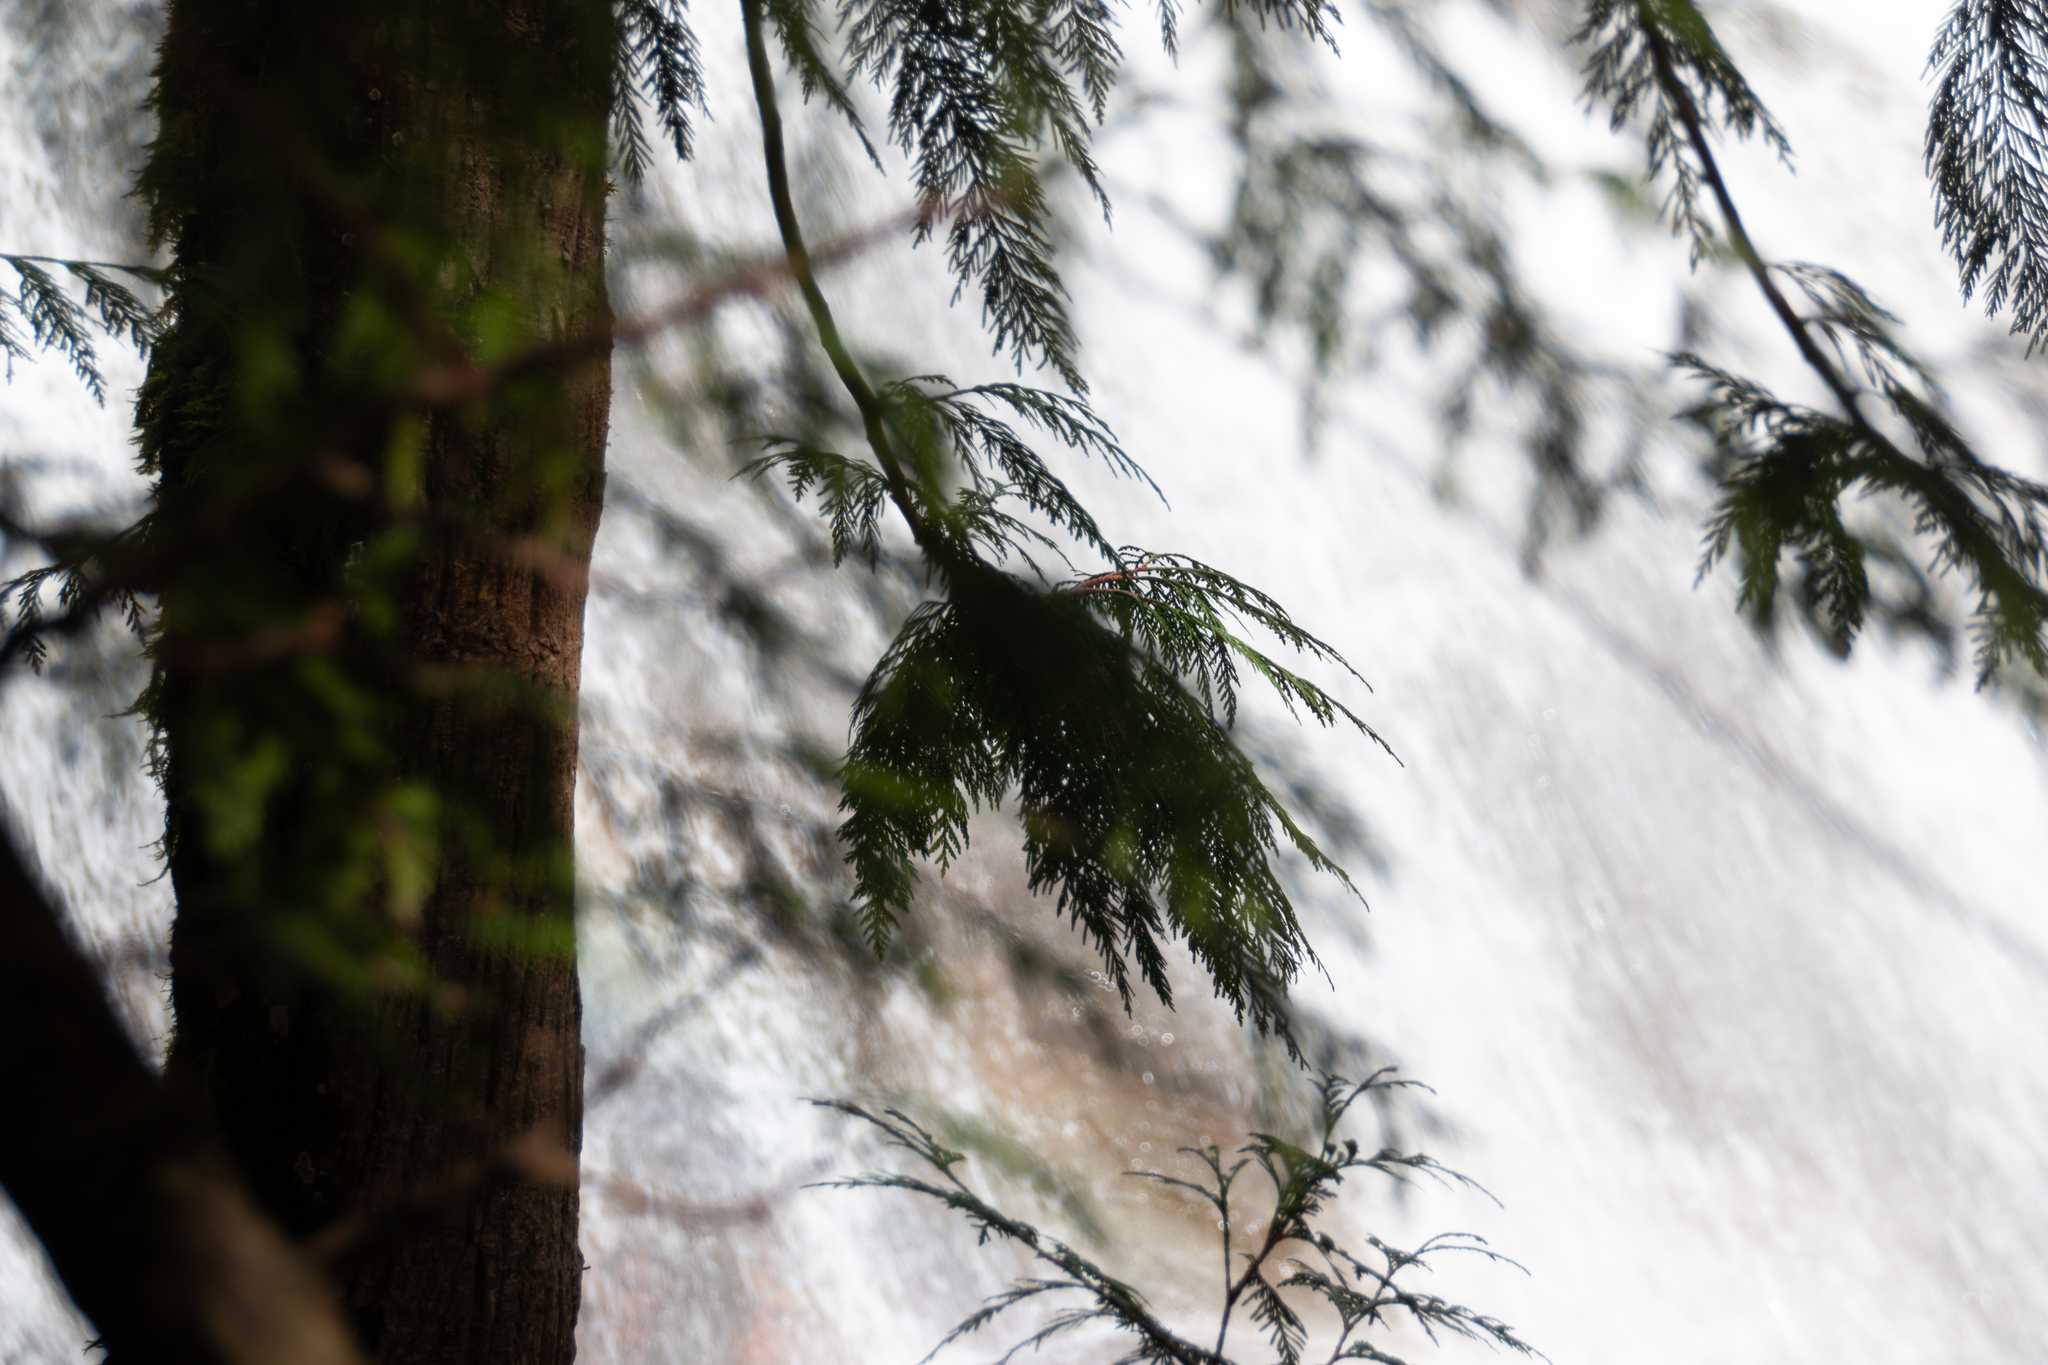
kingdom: Plantae
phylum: Tracheophyta
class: Pinopsida
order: Pinales
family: Cupressaceae
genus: Thuja
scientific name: Thuja plicata
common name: Western red-cedar
